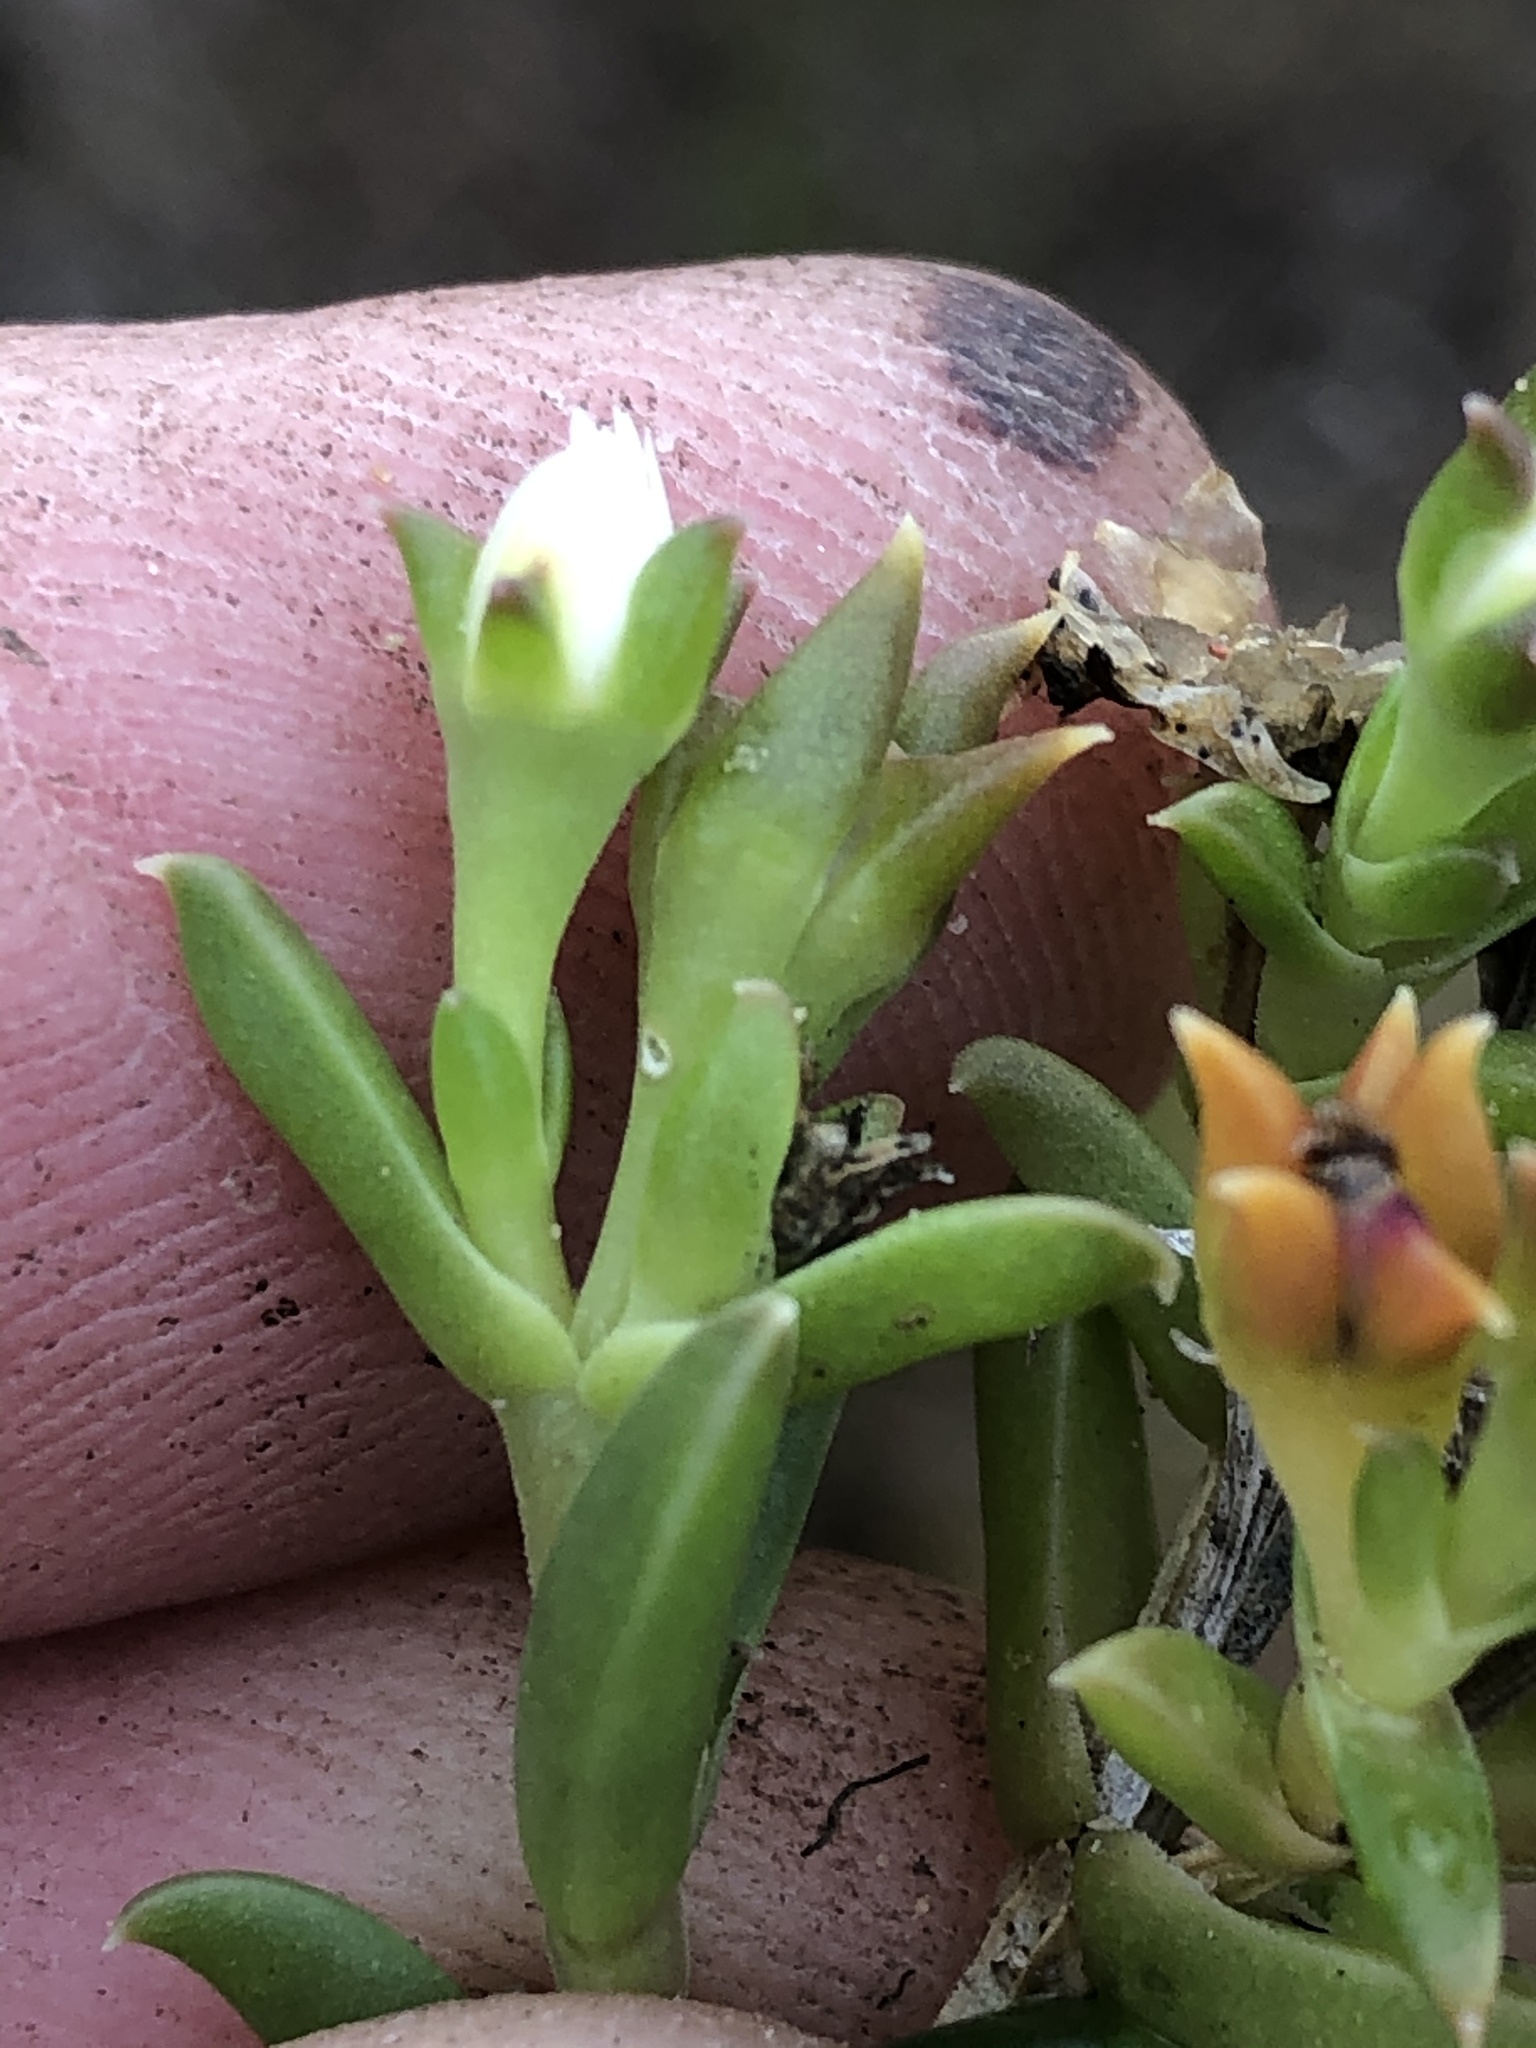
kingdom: Plantae
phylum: Tracheophyta
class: Magnoliopsida
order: Caryophyllales
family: Aizoaceae
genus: Delosperma
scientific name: Delosperma inconspicuum
